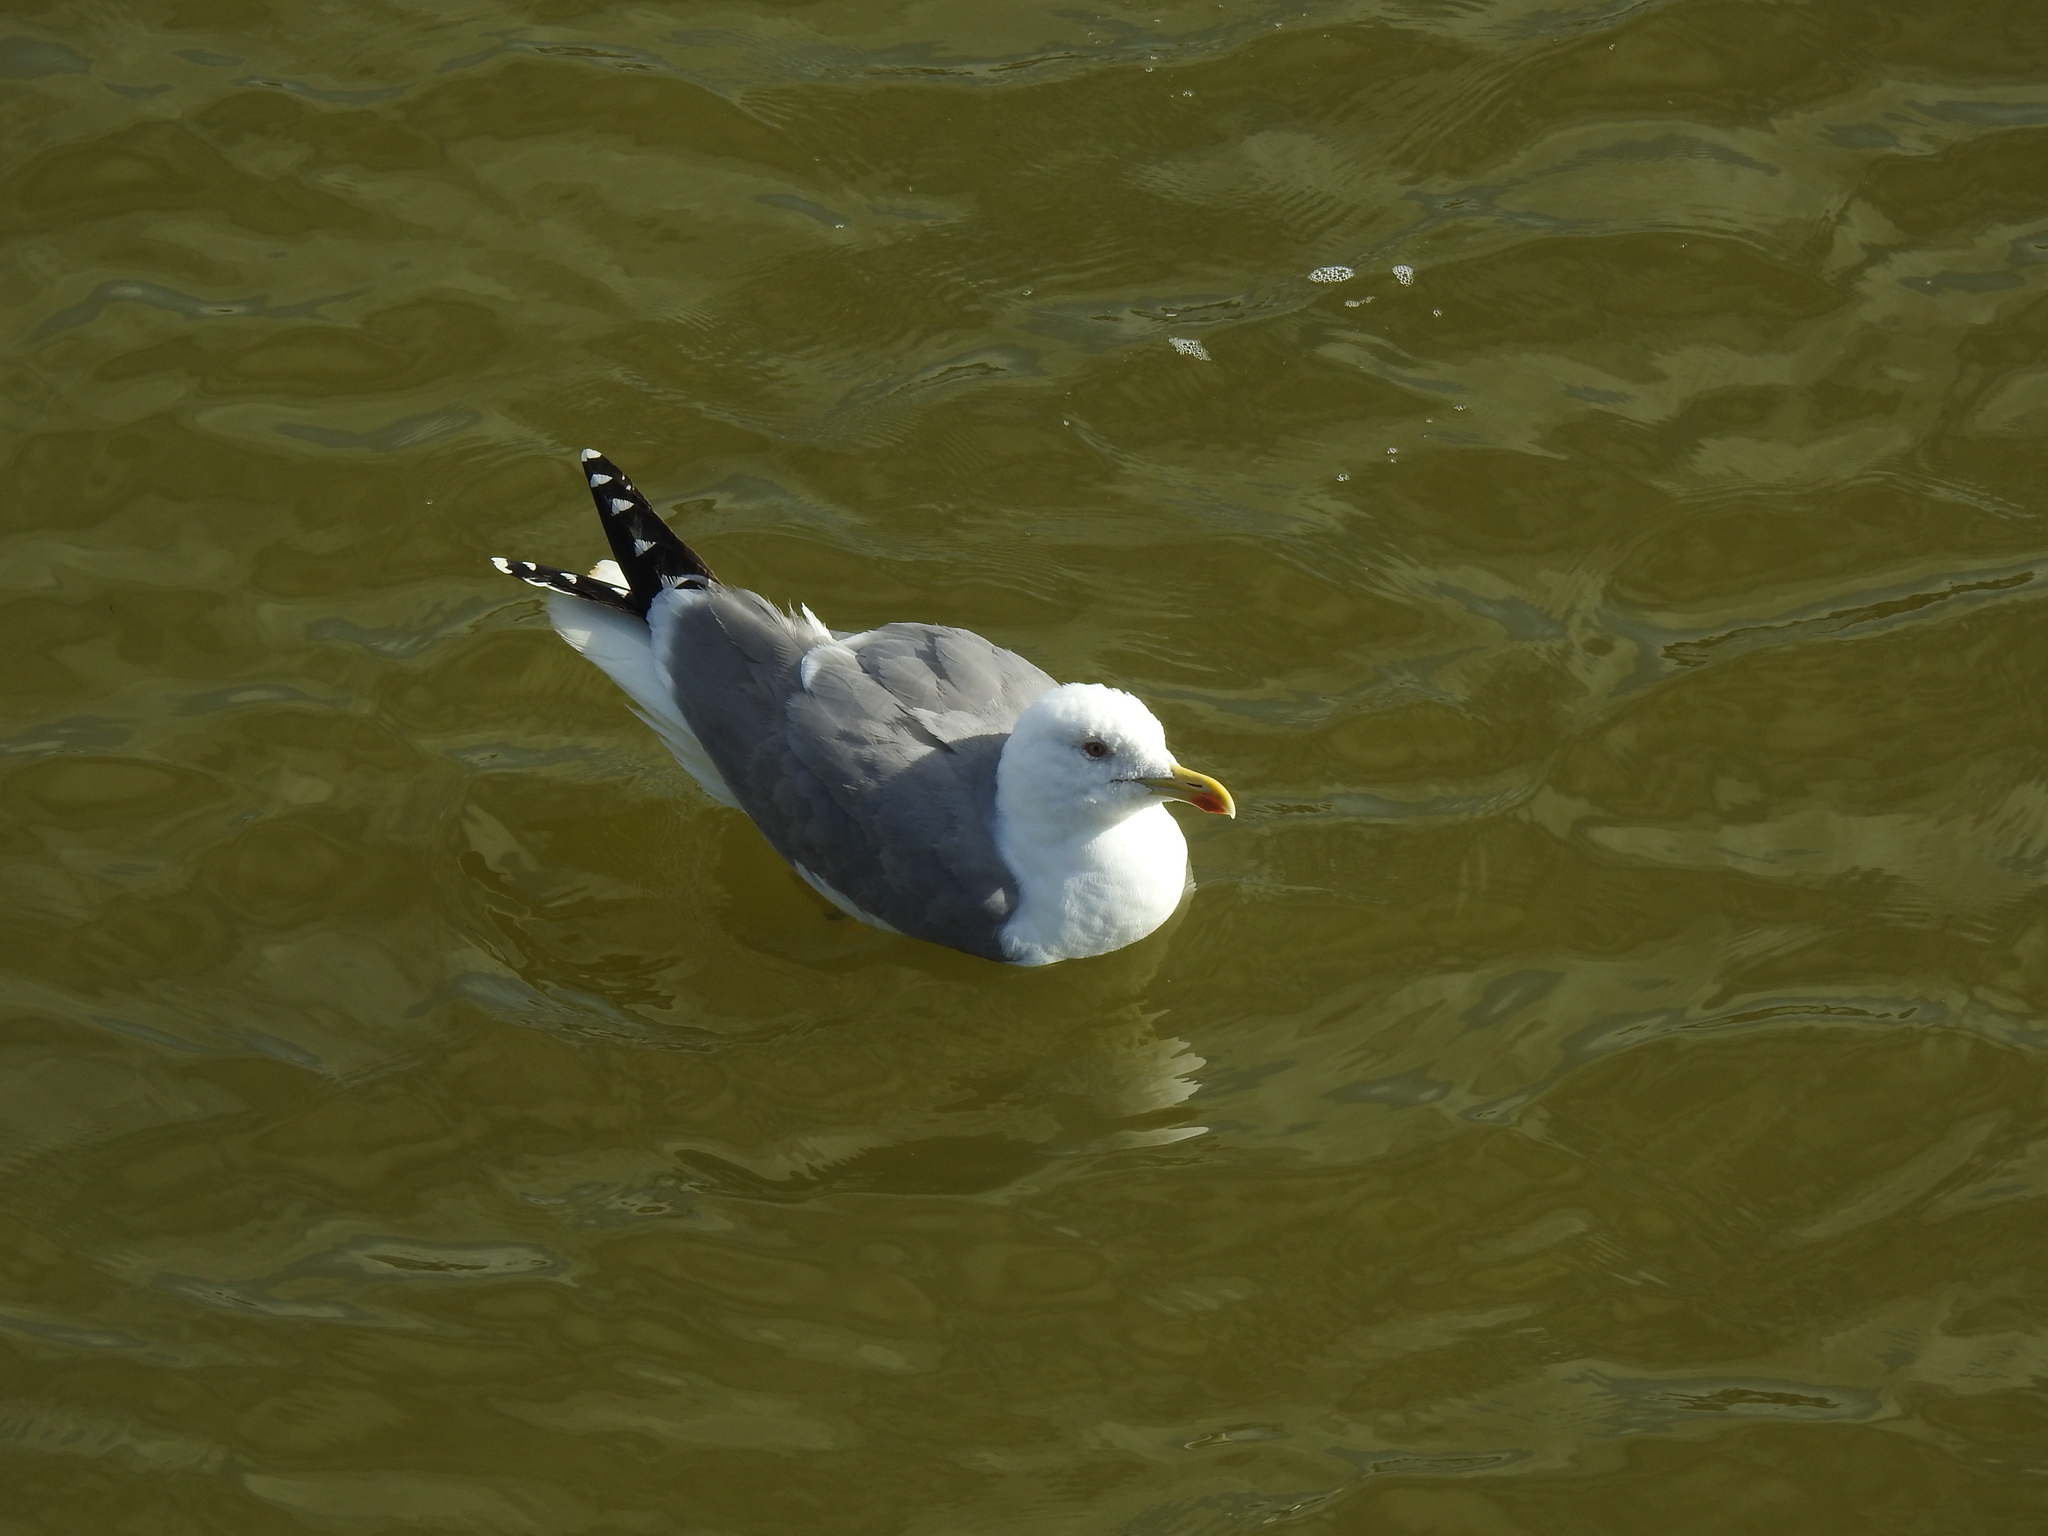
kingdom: Animalia
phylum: Chordata
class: Aves
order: Charadriiformes
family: Laridae
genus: Larus
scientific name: Larus michahellis
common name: Yellow-legged gull
